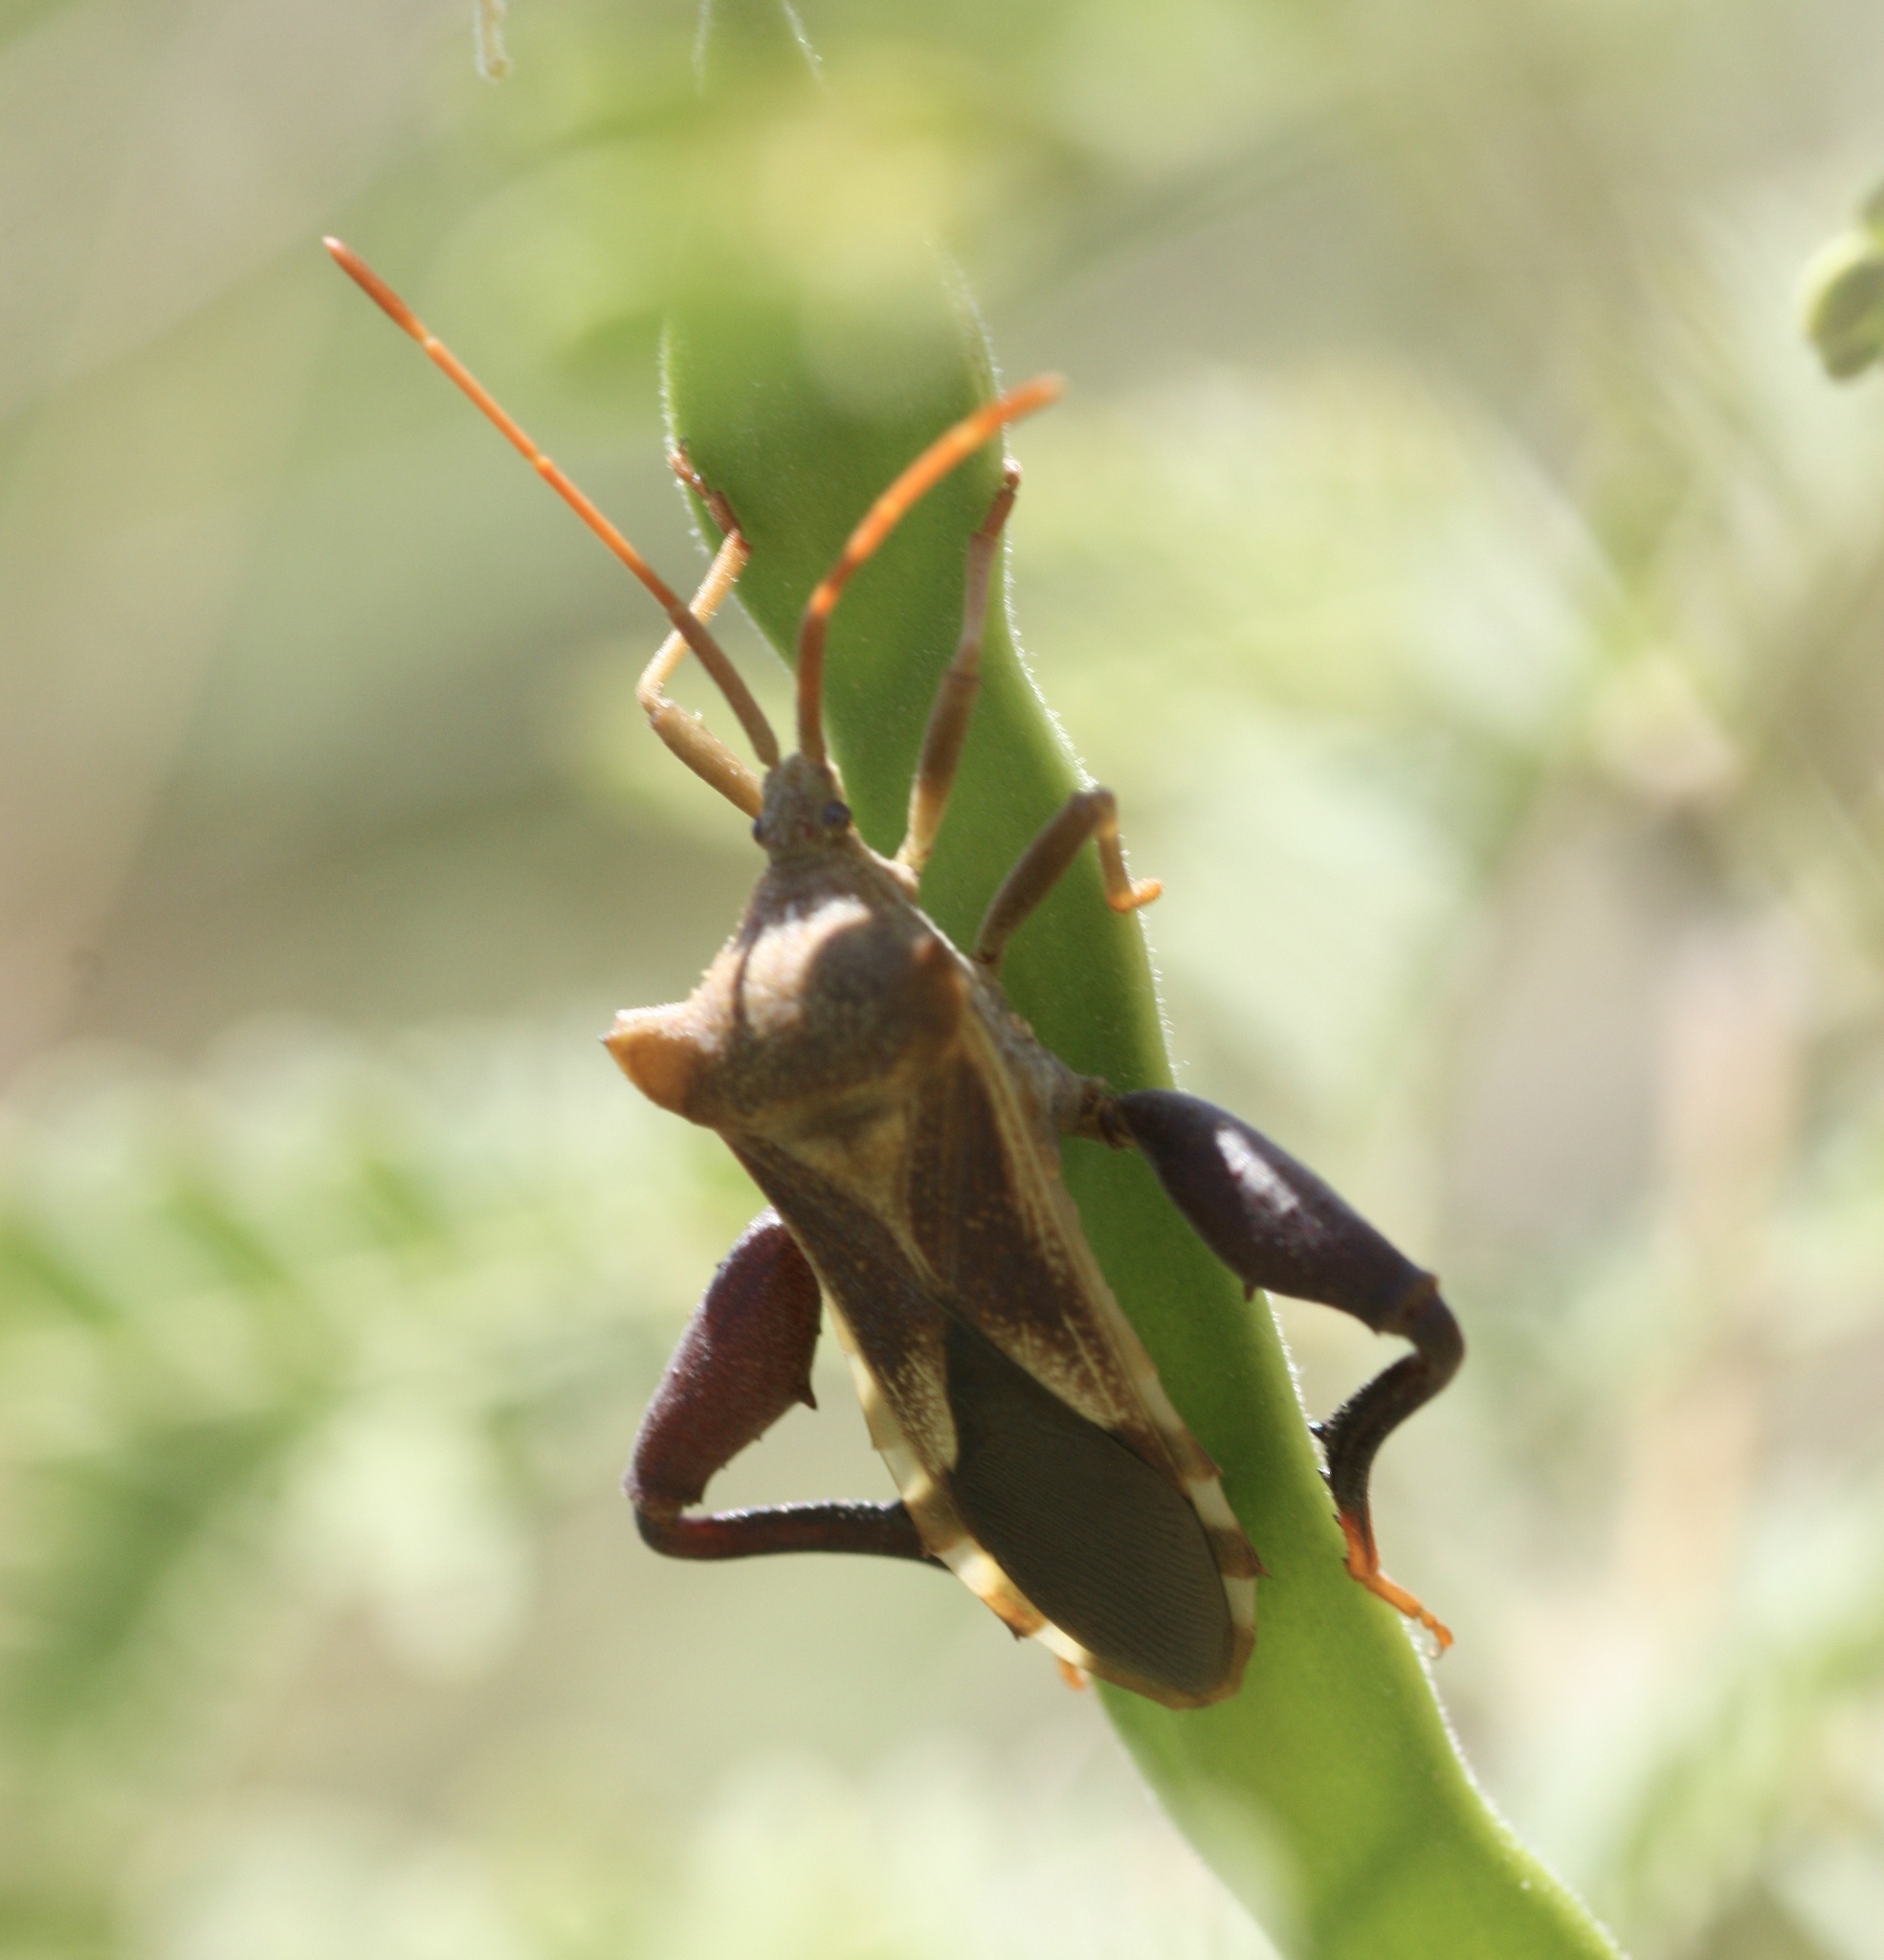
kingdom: Animalia
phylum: Arthropoda
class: Insecta
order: Hemiptera
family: Coreidae
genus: Mozena
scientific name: Mozena arizonensis
